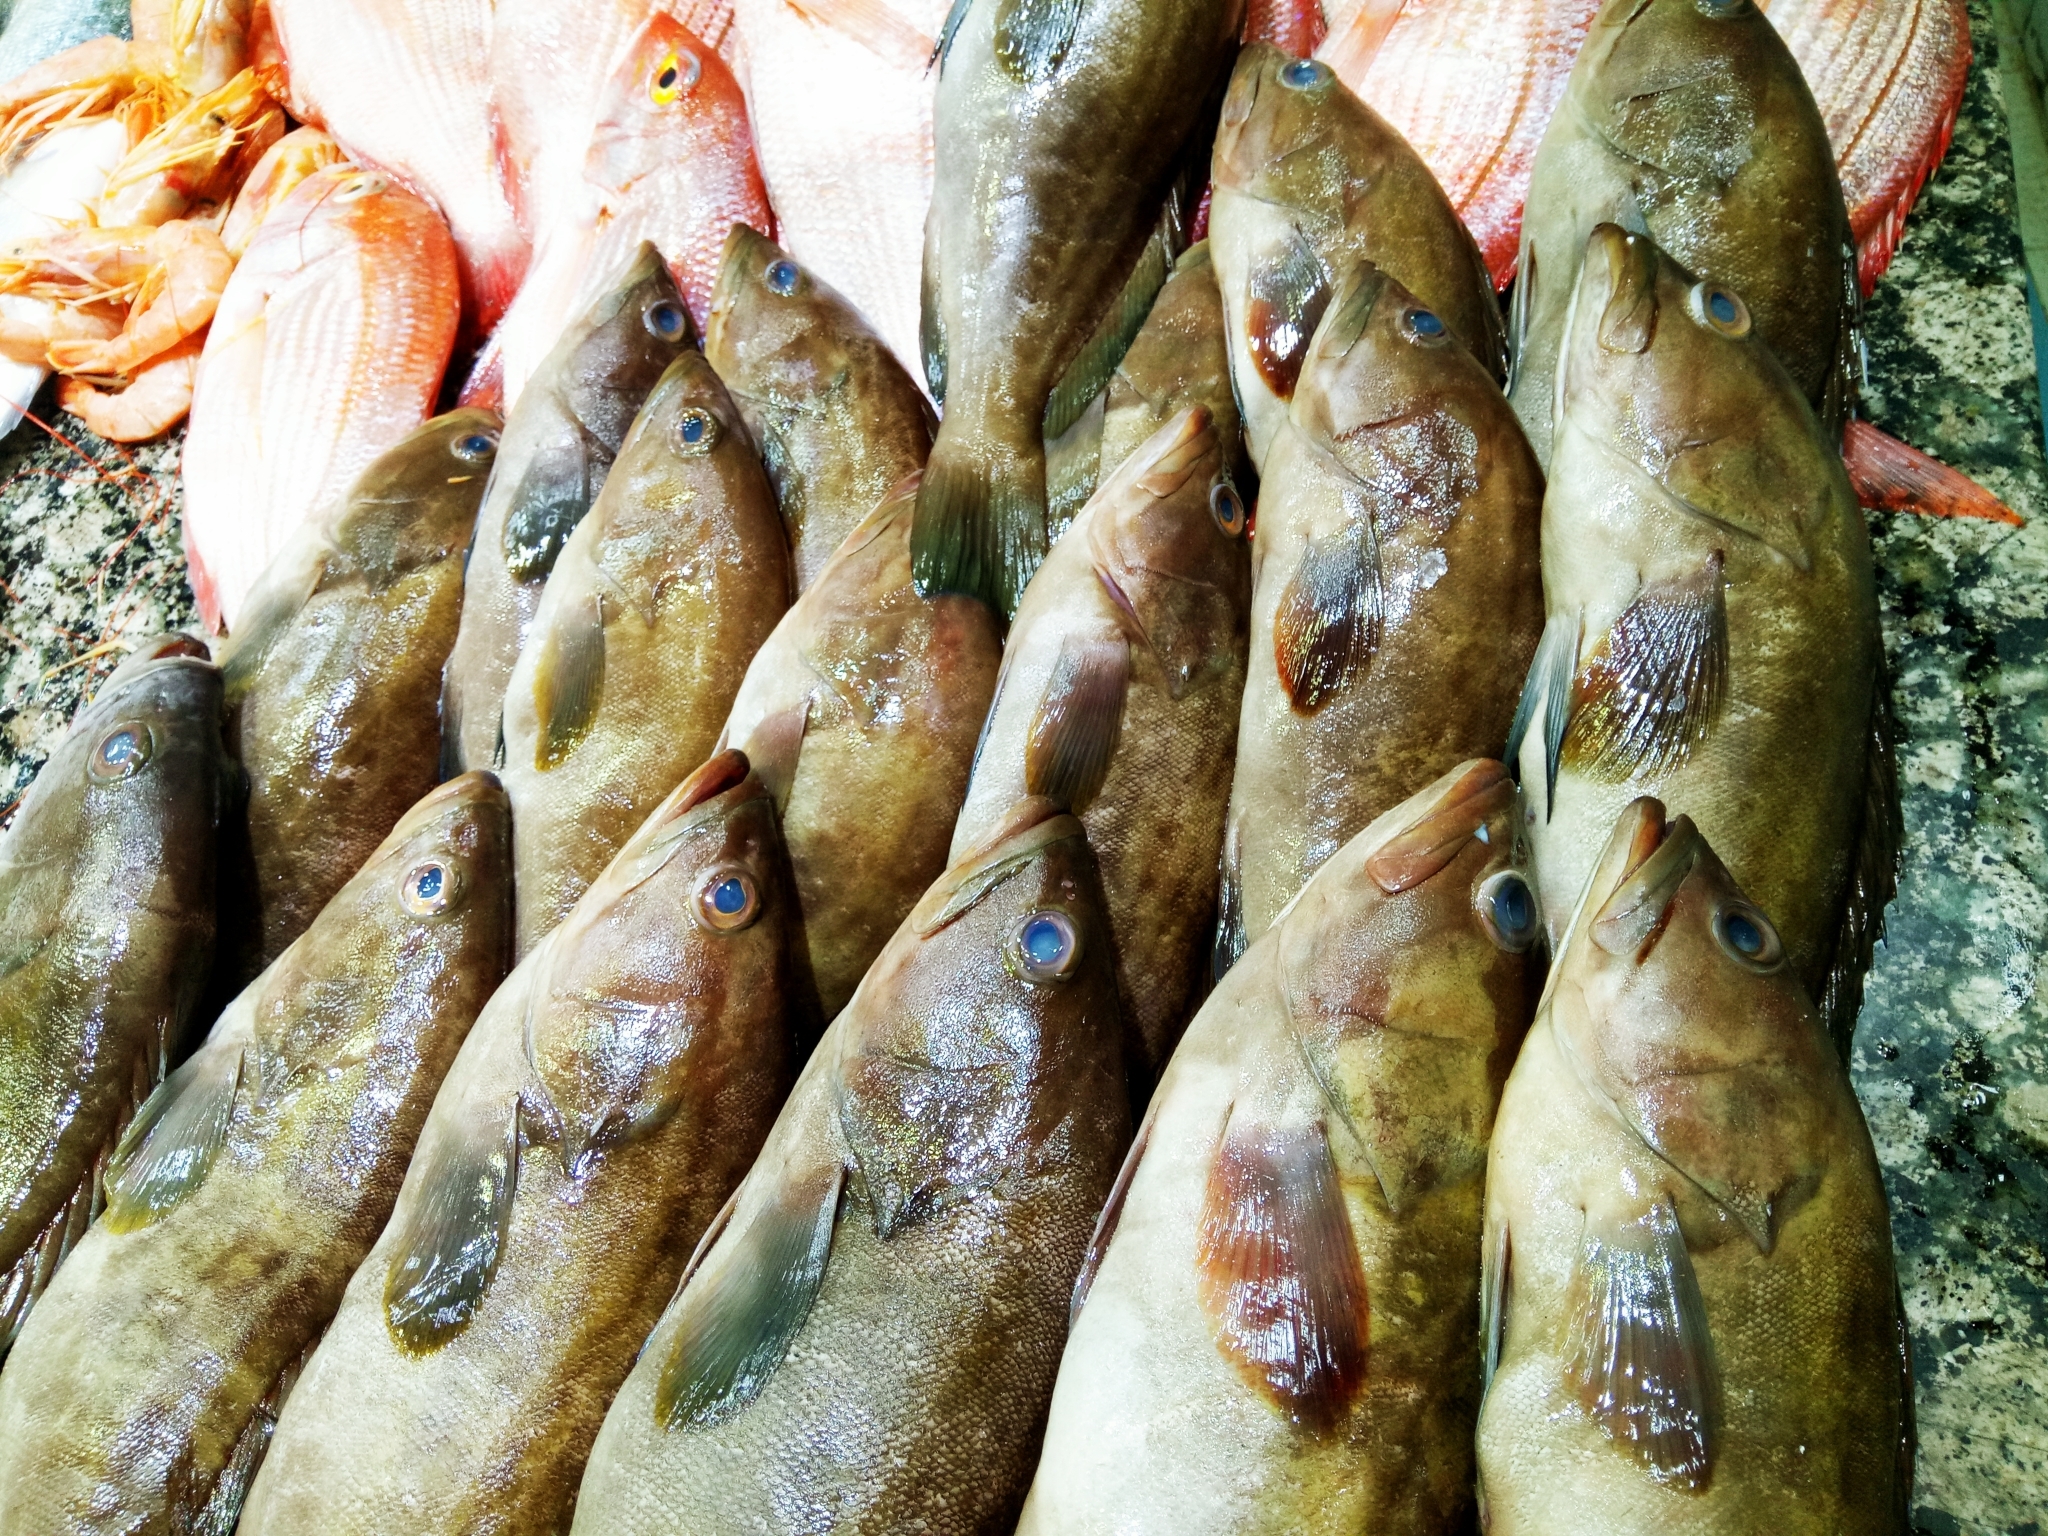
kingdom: Animalia
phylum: Chordata
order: Perciformes
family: Serranidae
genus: Epinephelus
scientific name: Epinephelus costae
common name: Goldblotch grouper
